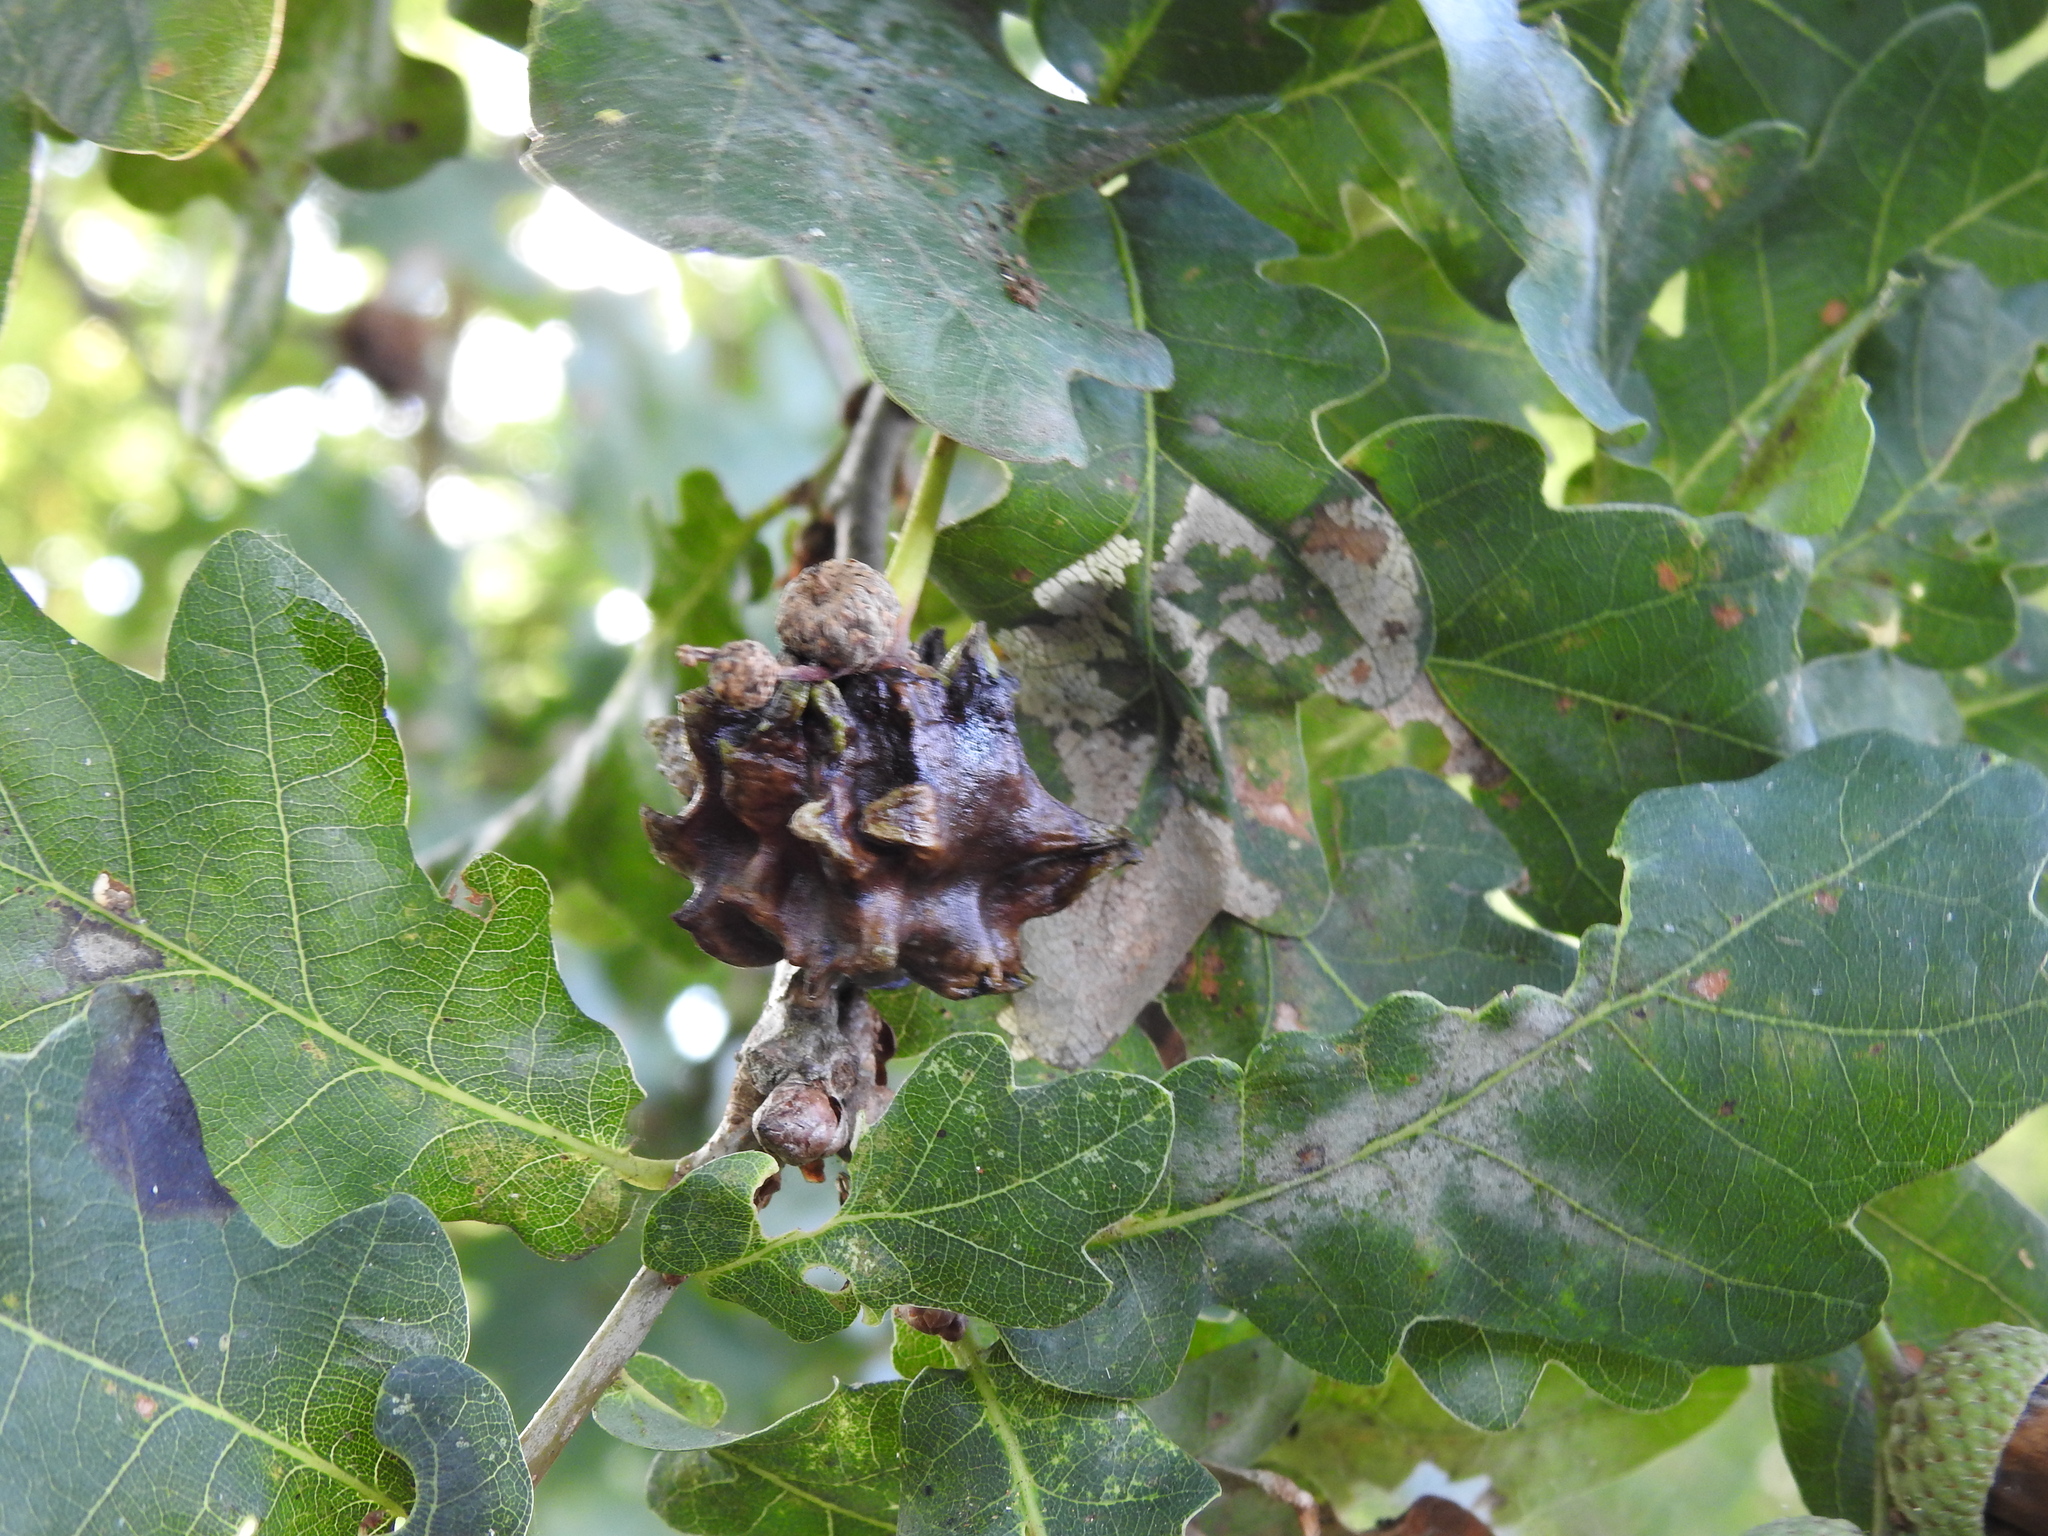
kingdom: Animalia
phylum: Arthropoda
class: Insecta
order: Hymenoptera
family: Cynipidae
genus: Andricus
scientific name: Andricus quercuscalicis
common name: Knopper gall
